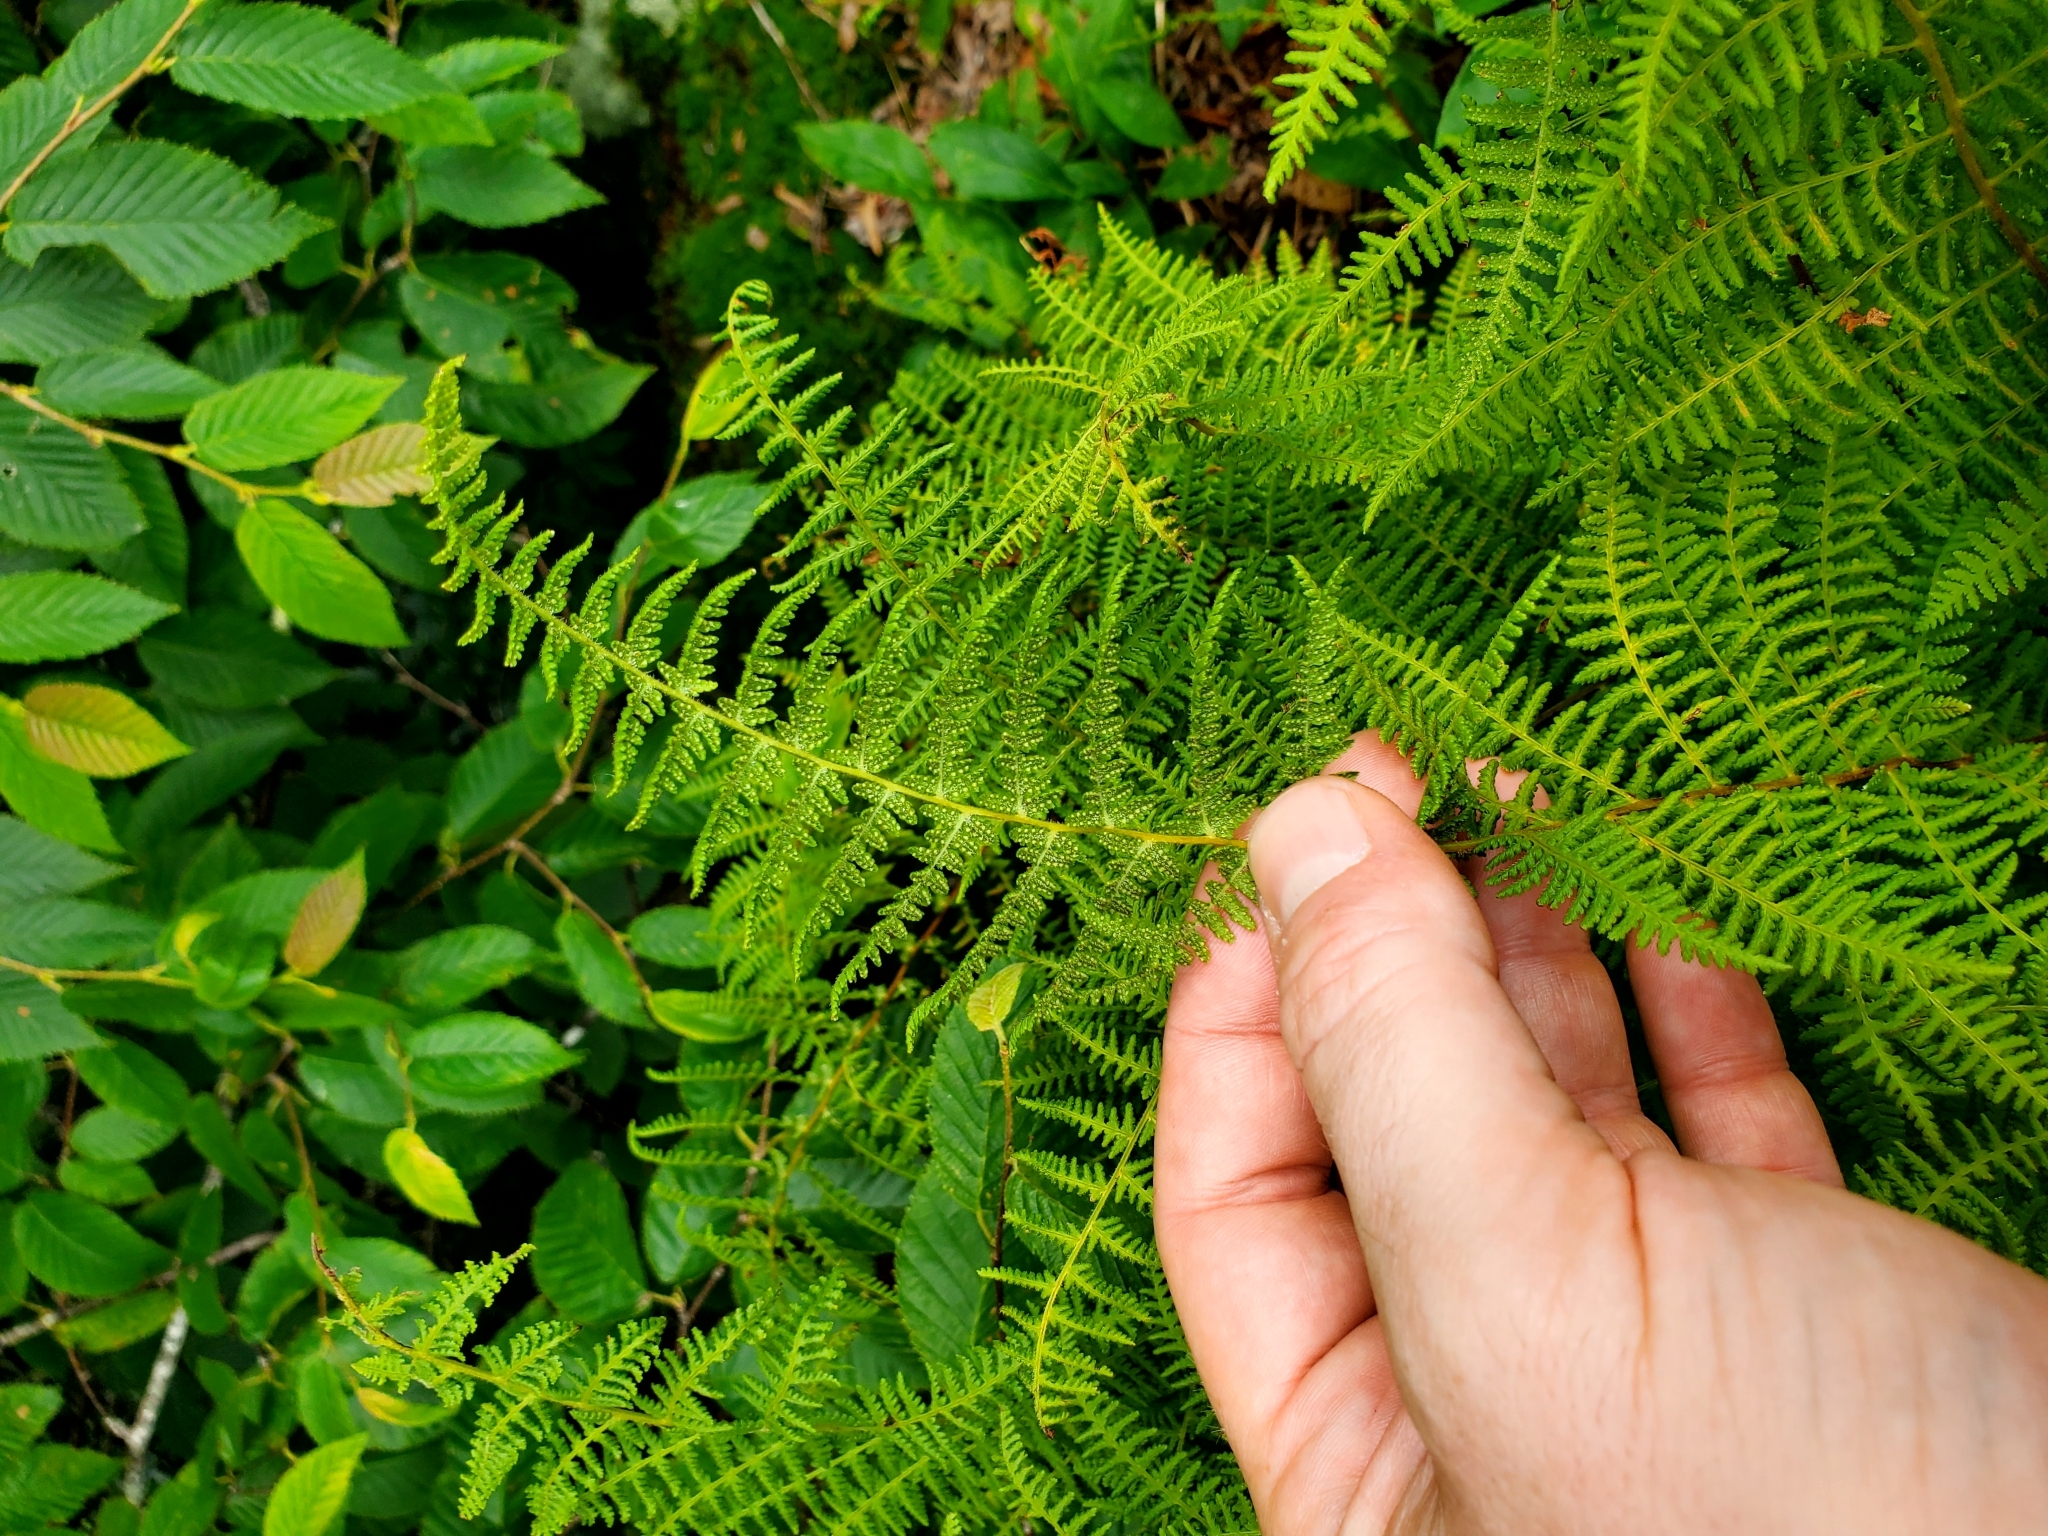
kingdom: Plantae
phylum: Tracheophyta
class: Polypodiopsida
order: Polypodiales
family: Dennstaedtiaceae
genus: Sitobolium
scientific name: Sitobolium punctilobum
